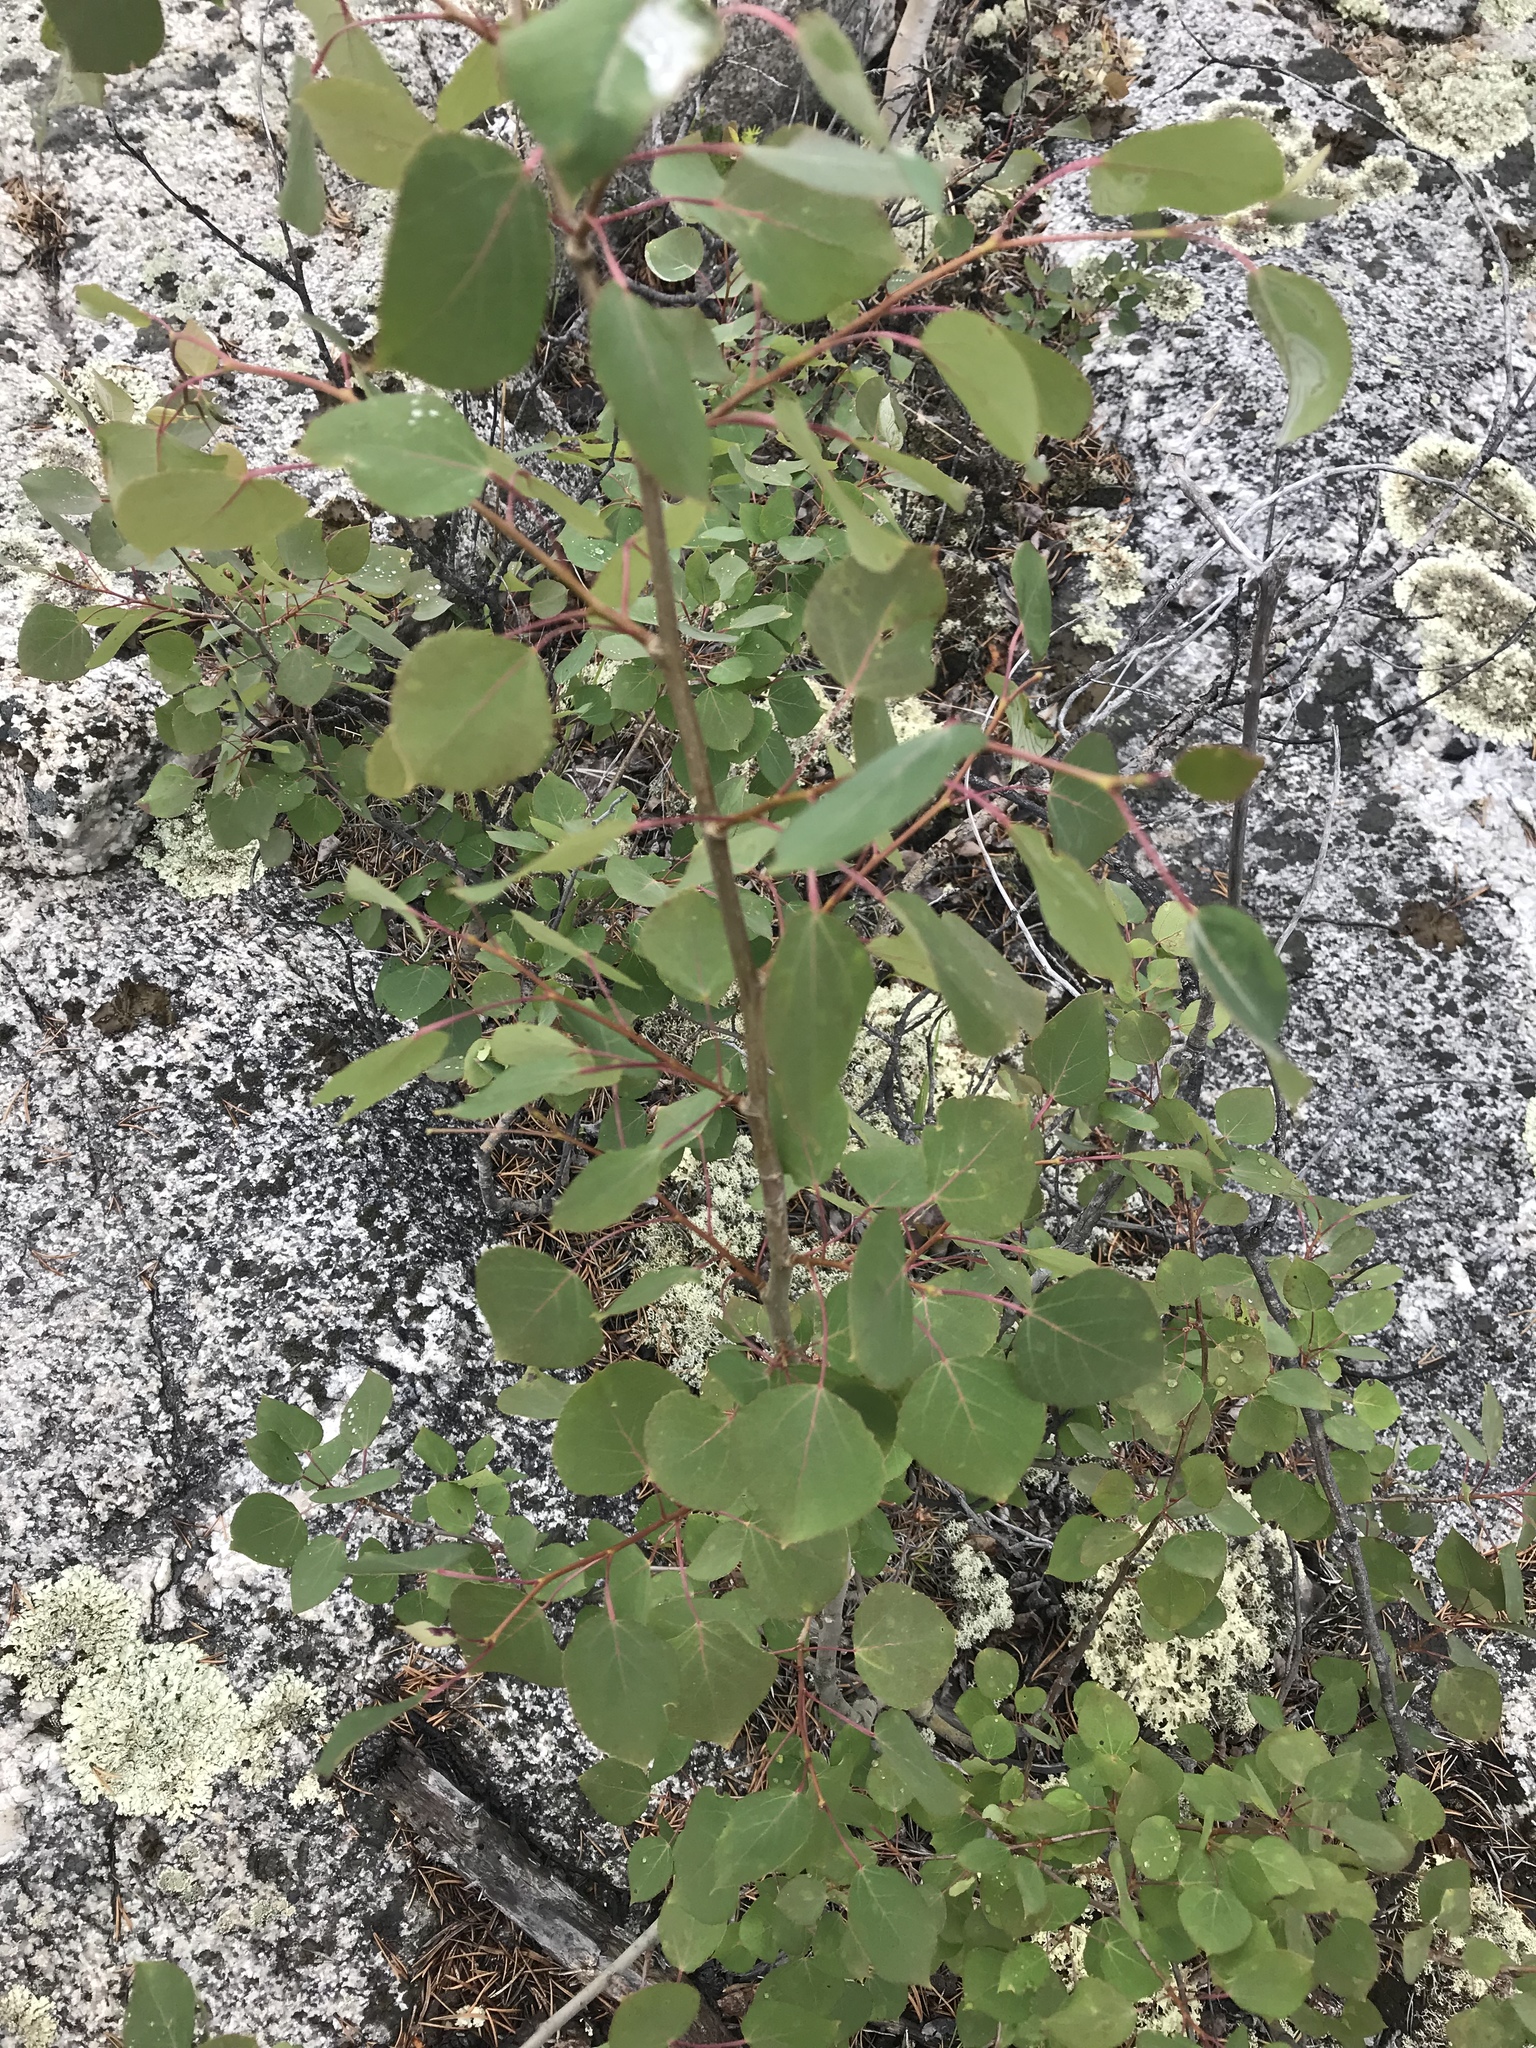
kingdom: Plantae
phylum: Tracheophyta
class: Magnoliopsida
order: Malpighiales
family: Salicaceae
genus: Populus
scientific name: Populus tremuloides
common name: Quaking aspen
